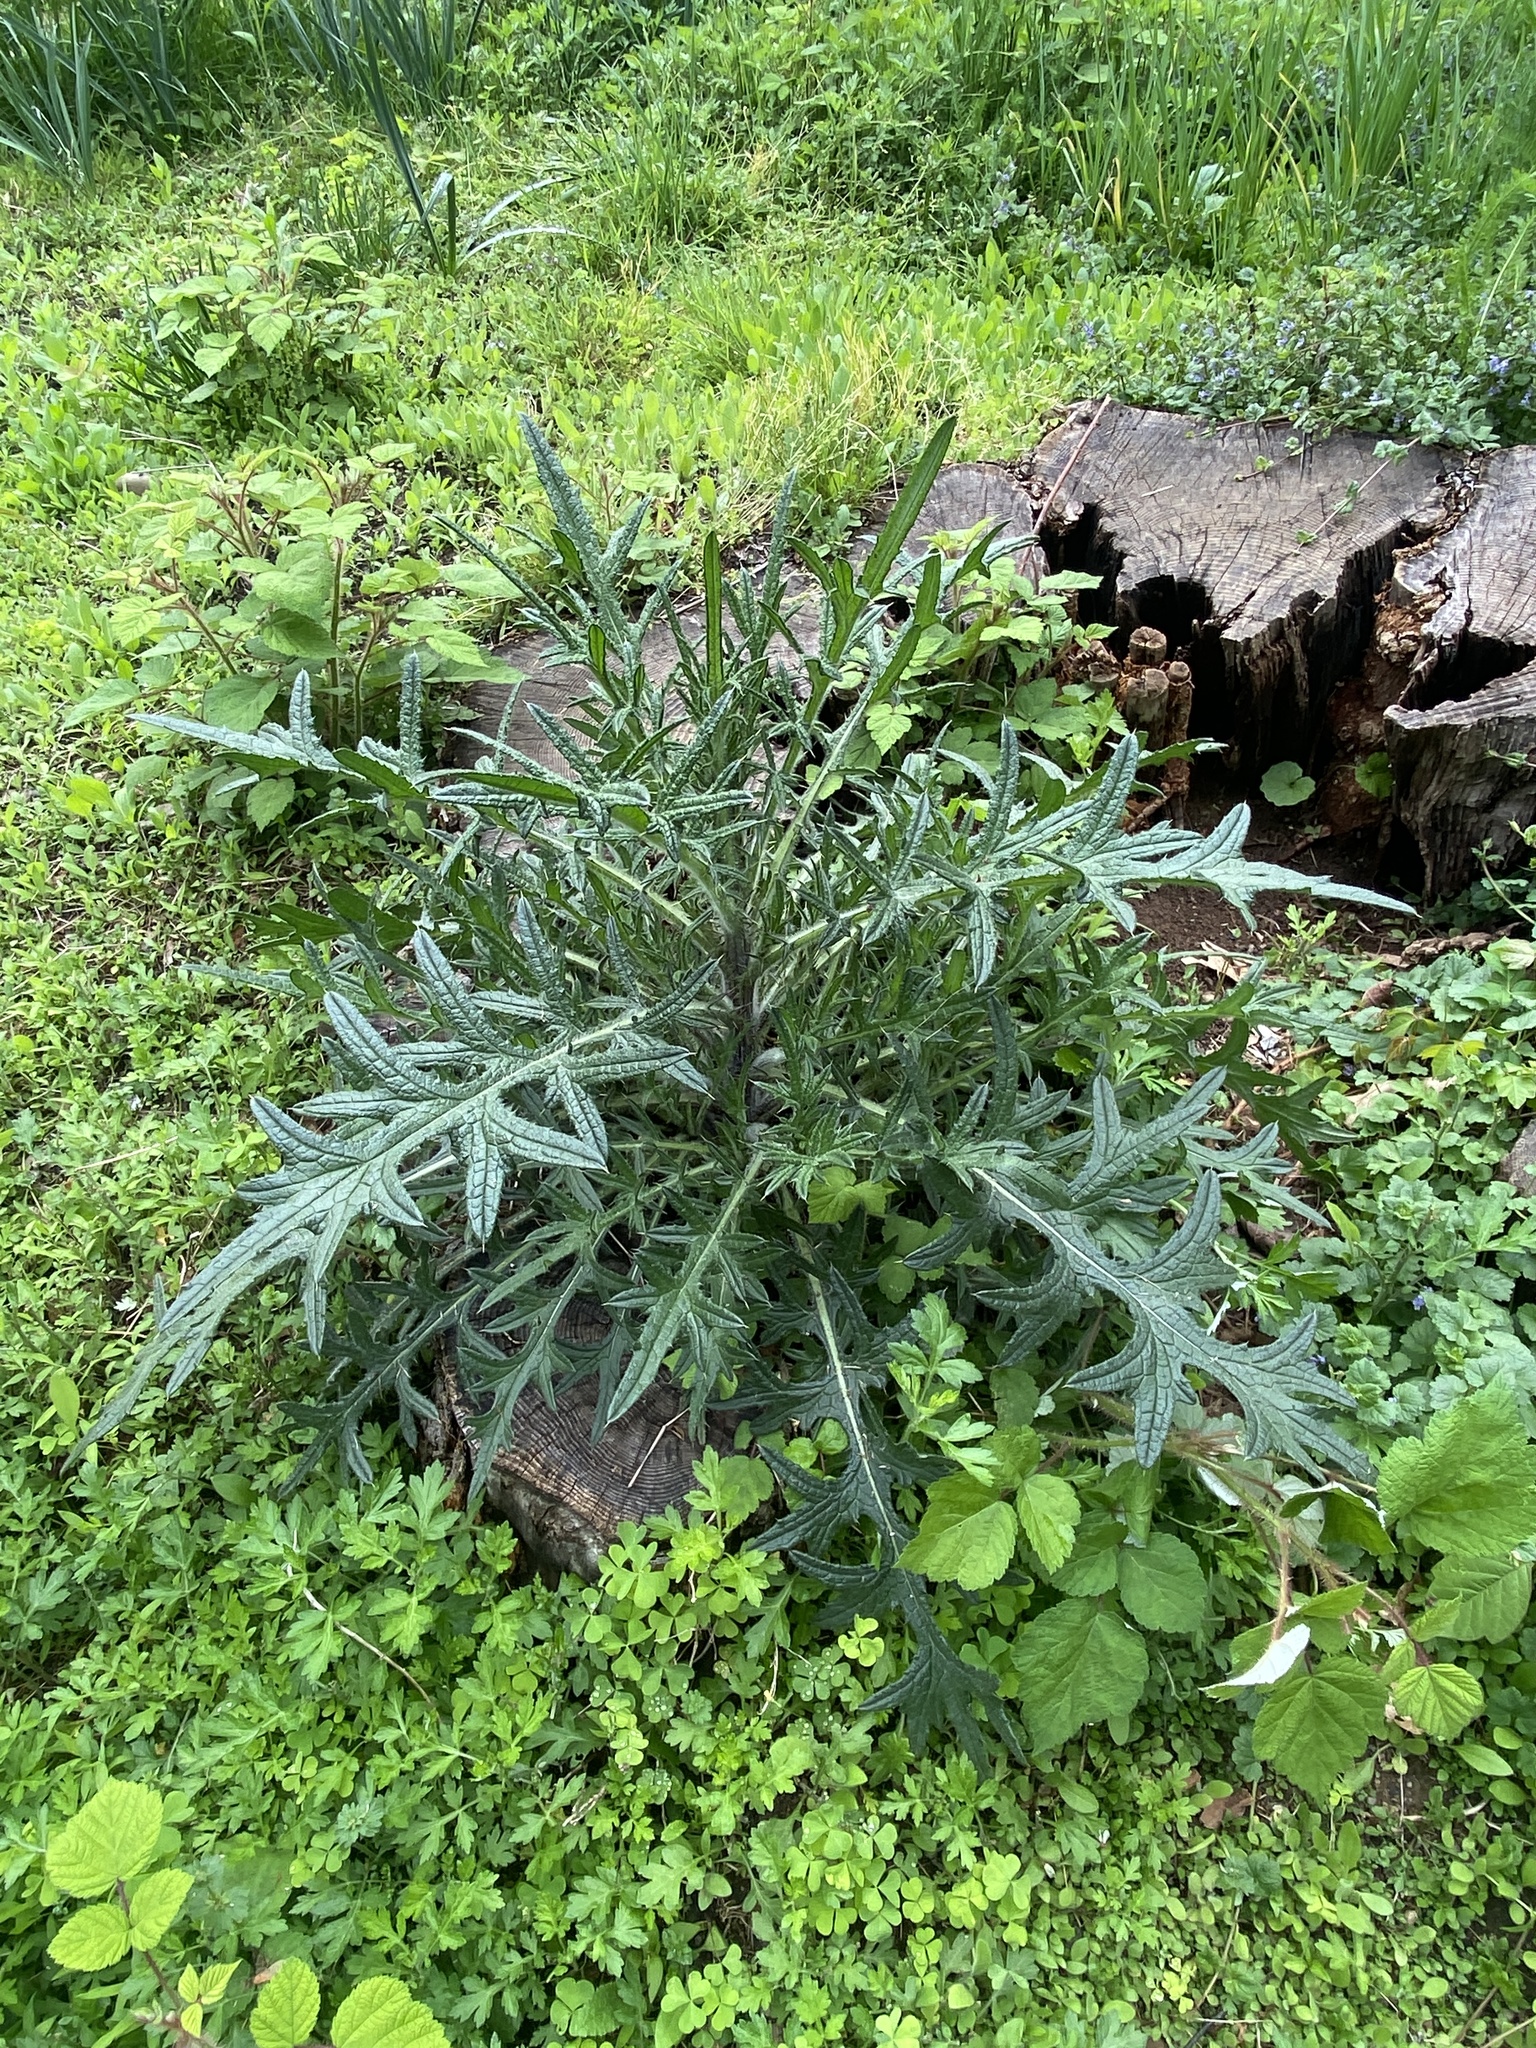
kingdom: Plantae
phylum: Tracheophyta
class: Magnoliopsida
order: Asterales
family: Asteraceae
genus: Cirsium
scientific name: Cirsium vulgare
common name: Bull thistle
